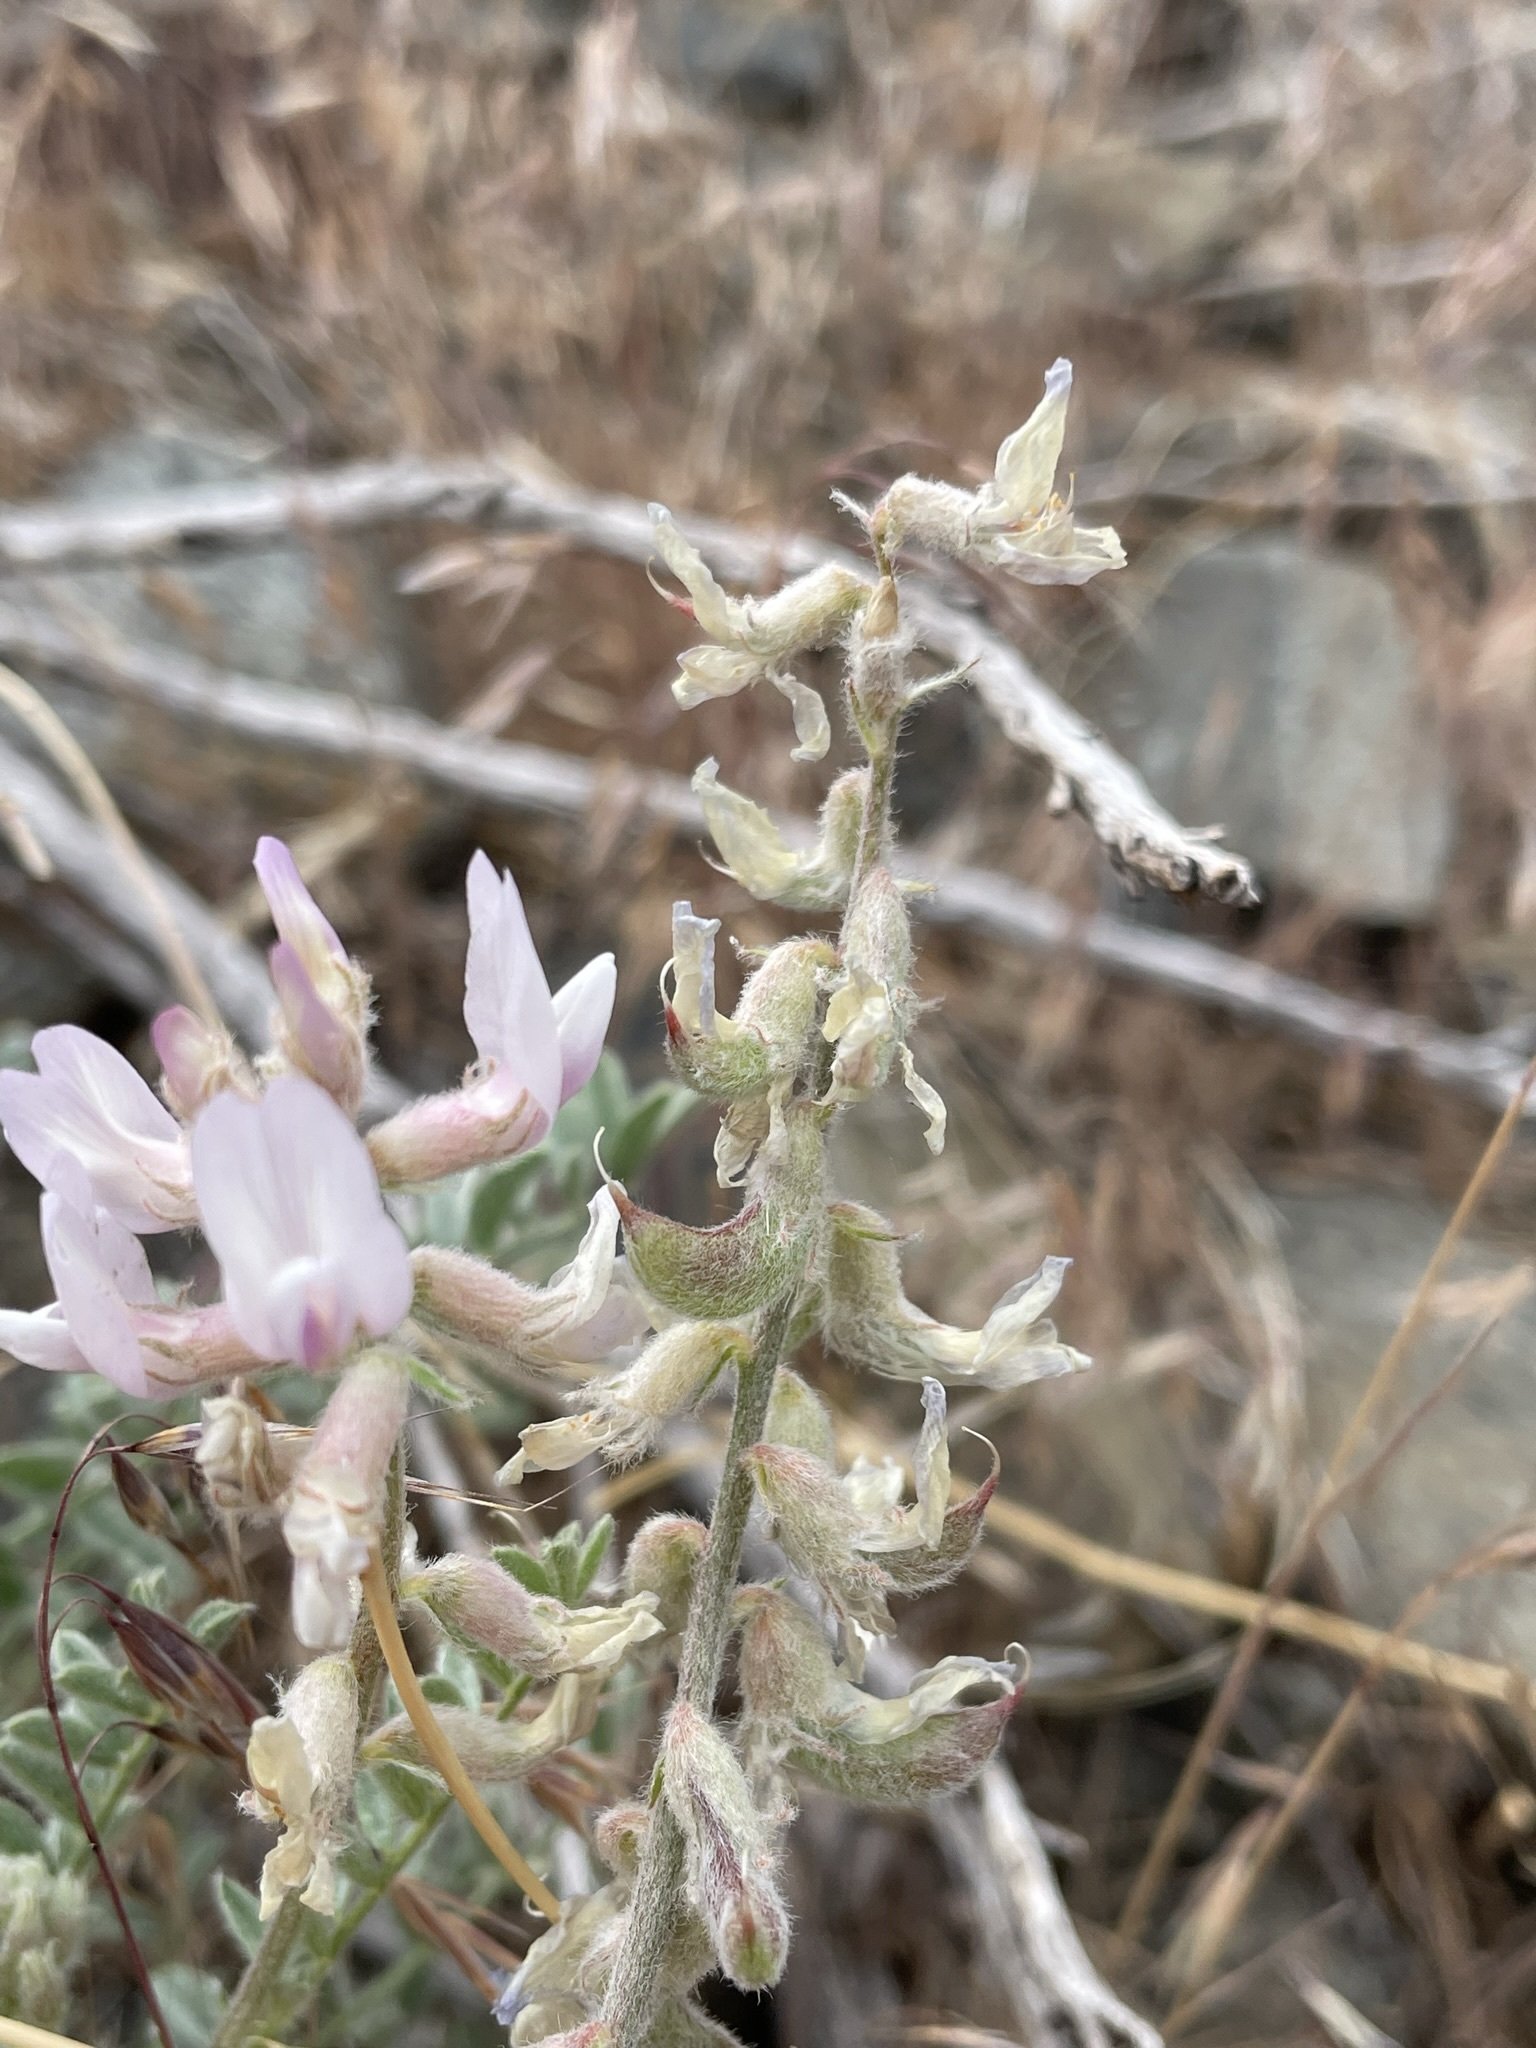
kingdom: Plantae
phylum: Tracheophyta
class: Magnoliopsida
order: Fabales
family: Fabaceae
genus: Astragalus
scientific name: Astragalus andersonii
